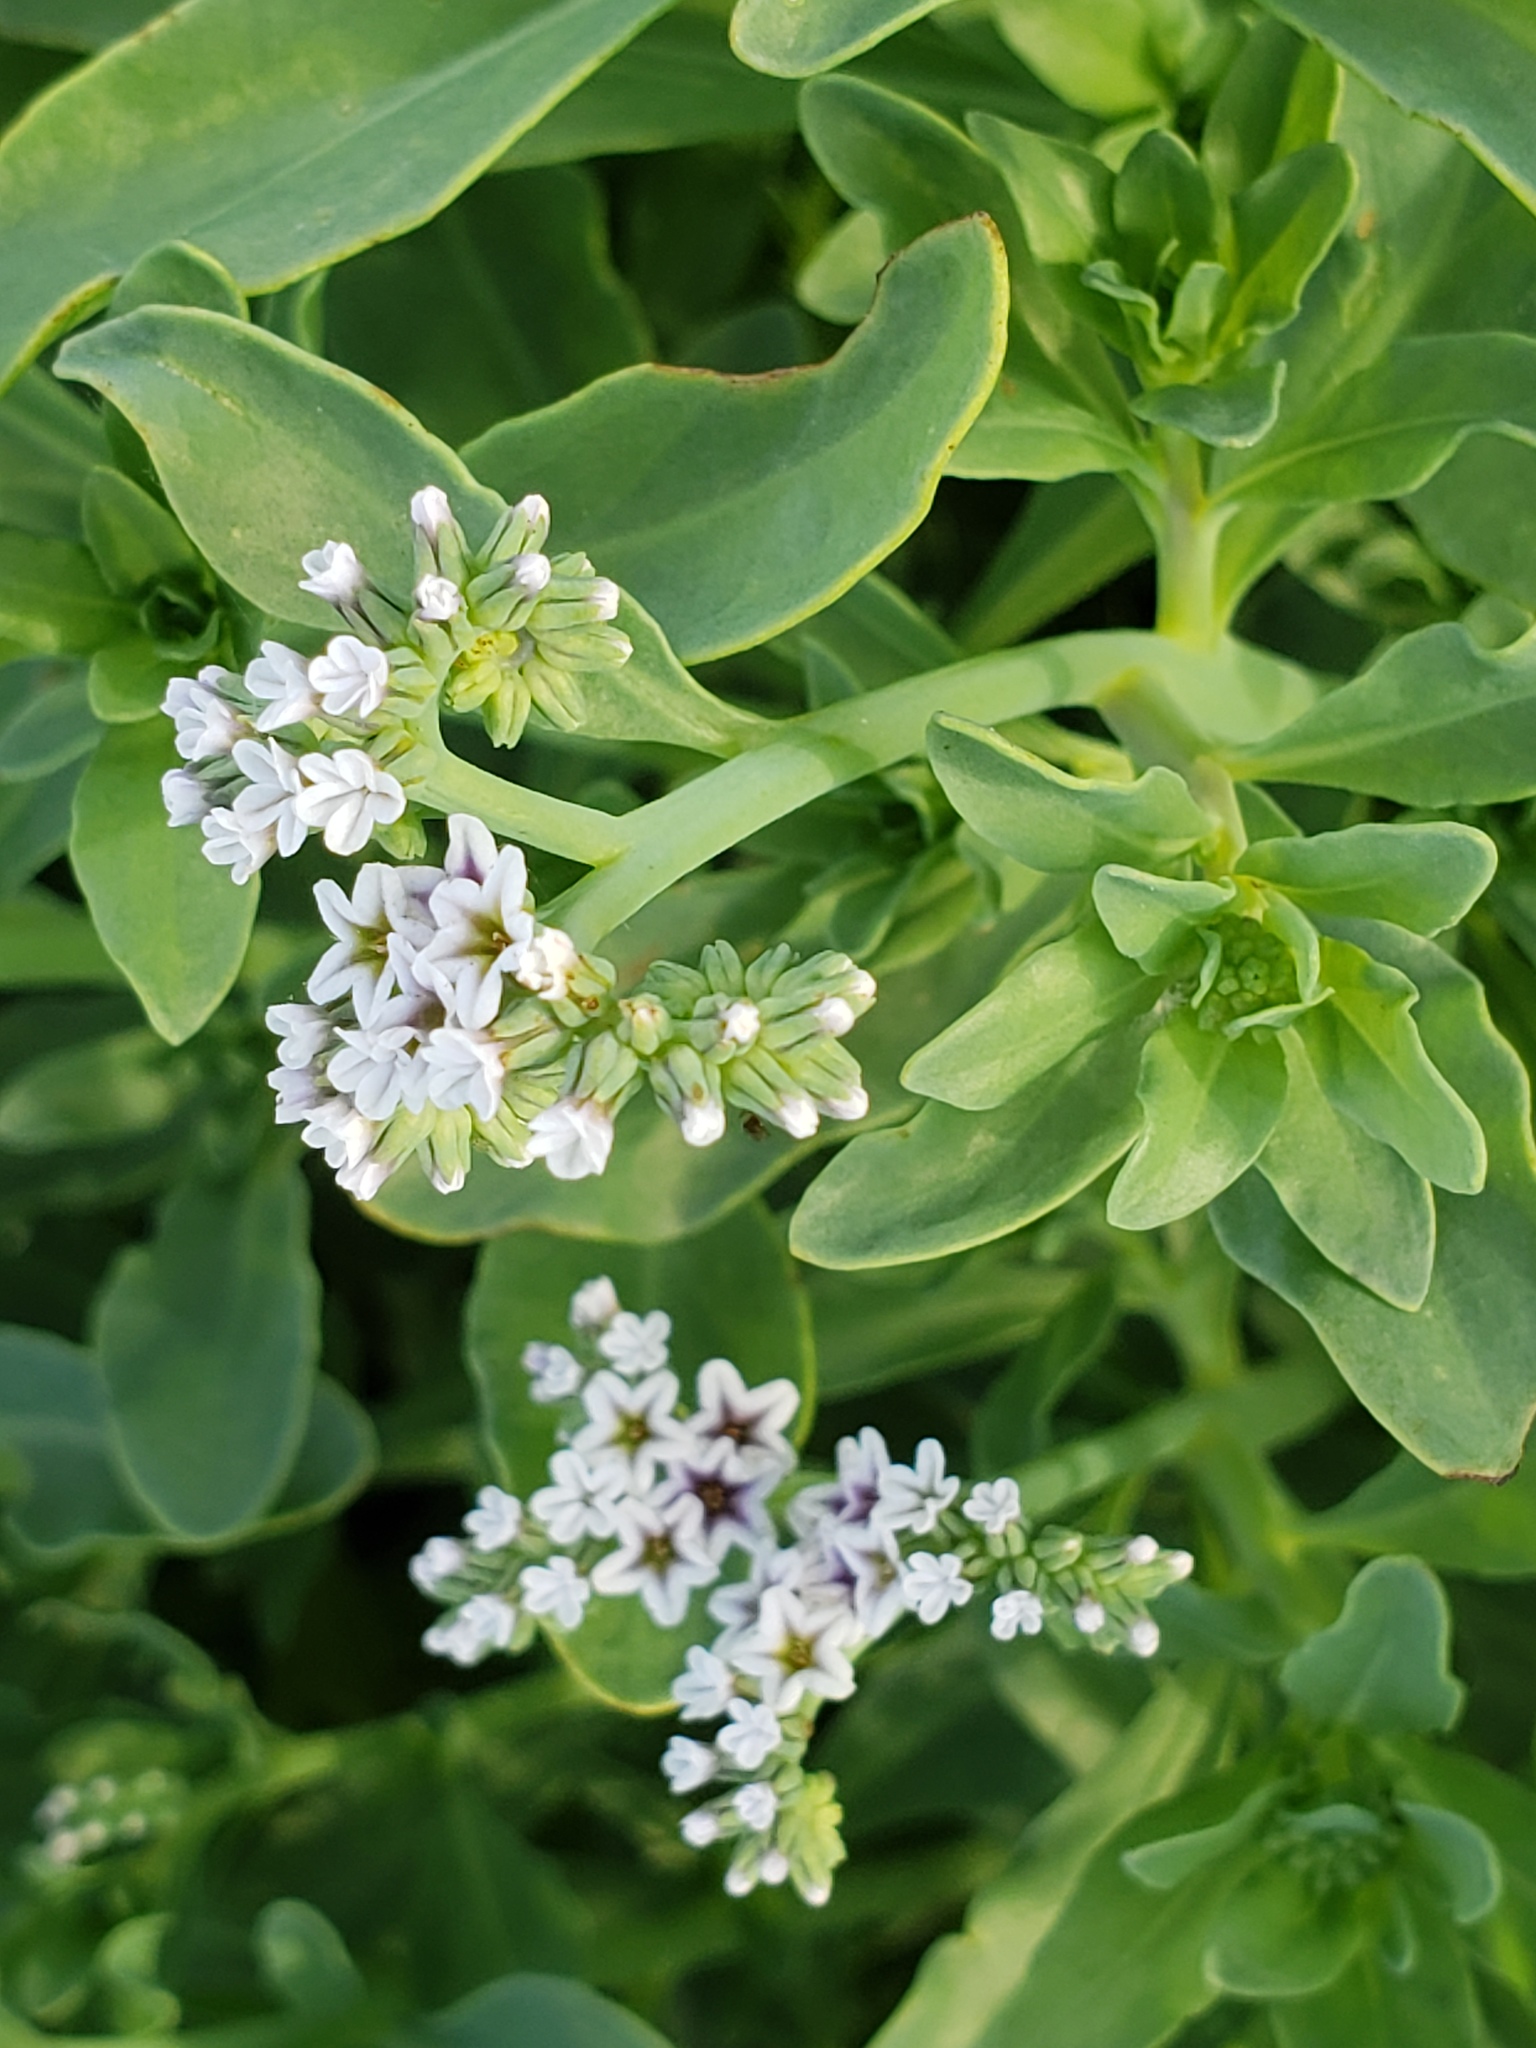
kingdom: Plantae
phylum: Tracheophyta
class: Magnoliopsida
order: Boraginales
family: Heliotropiaceae
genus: Heliotropium
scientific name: Heliotropium curassavicum
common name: Seaside heliotrope
